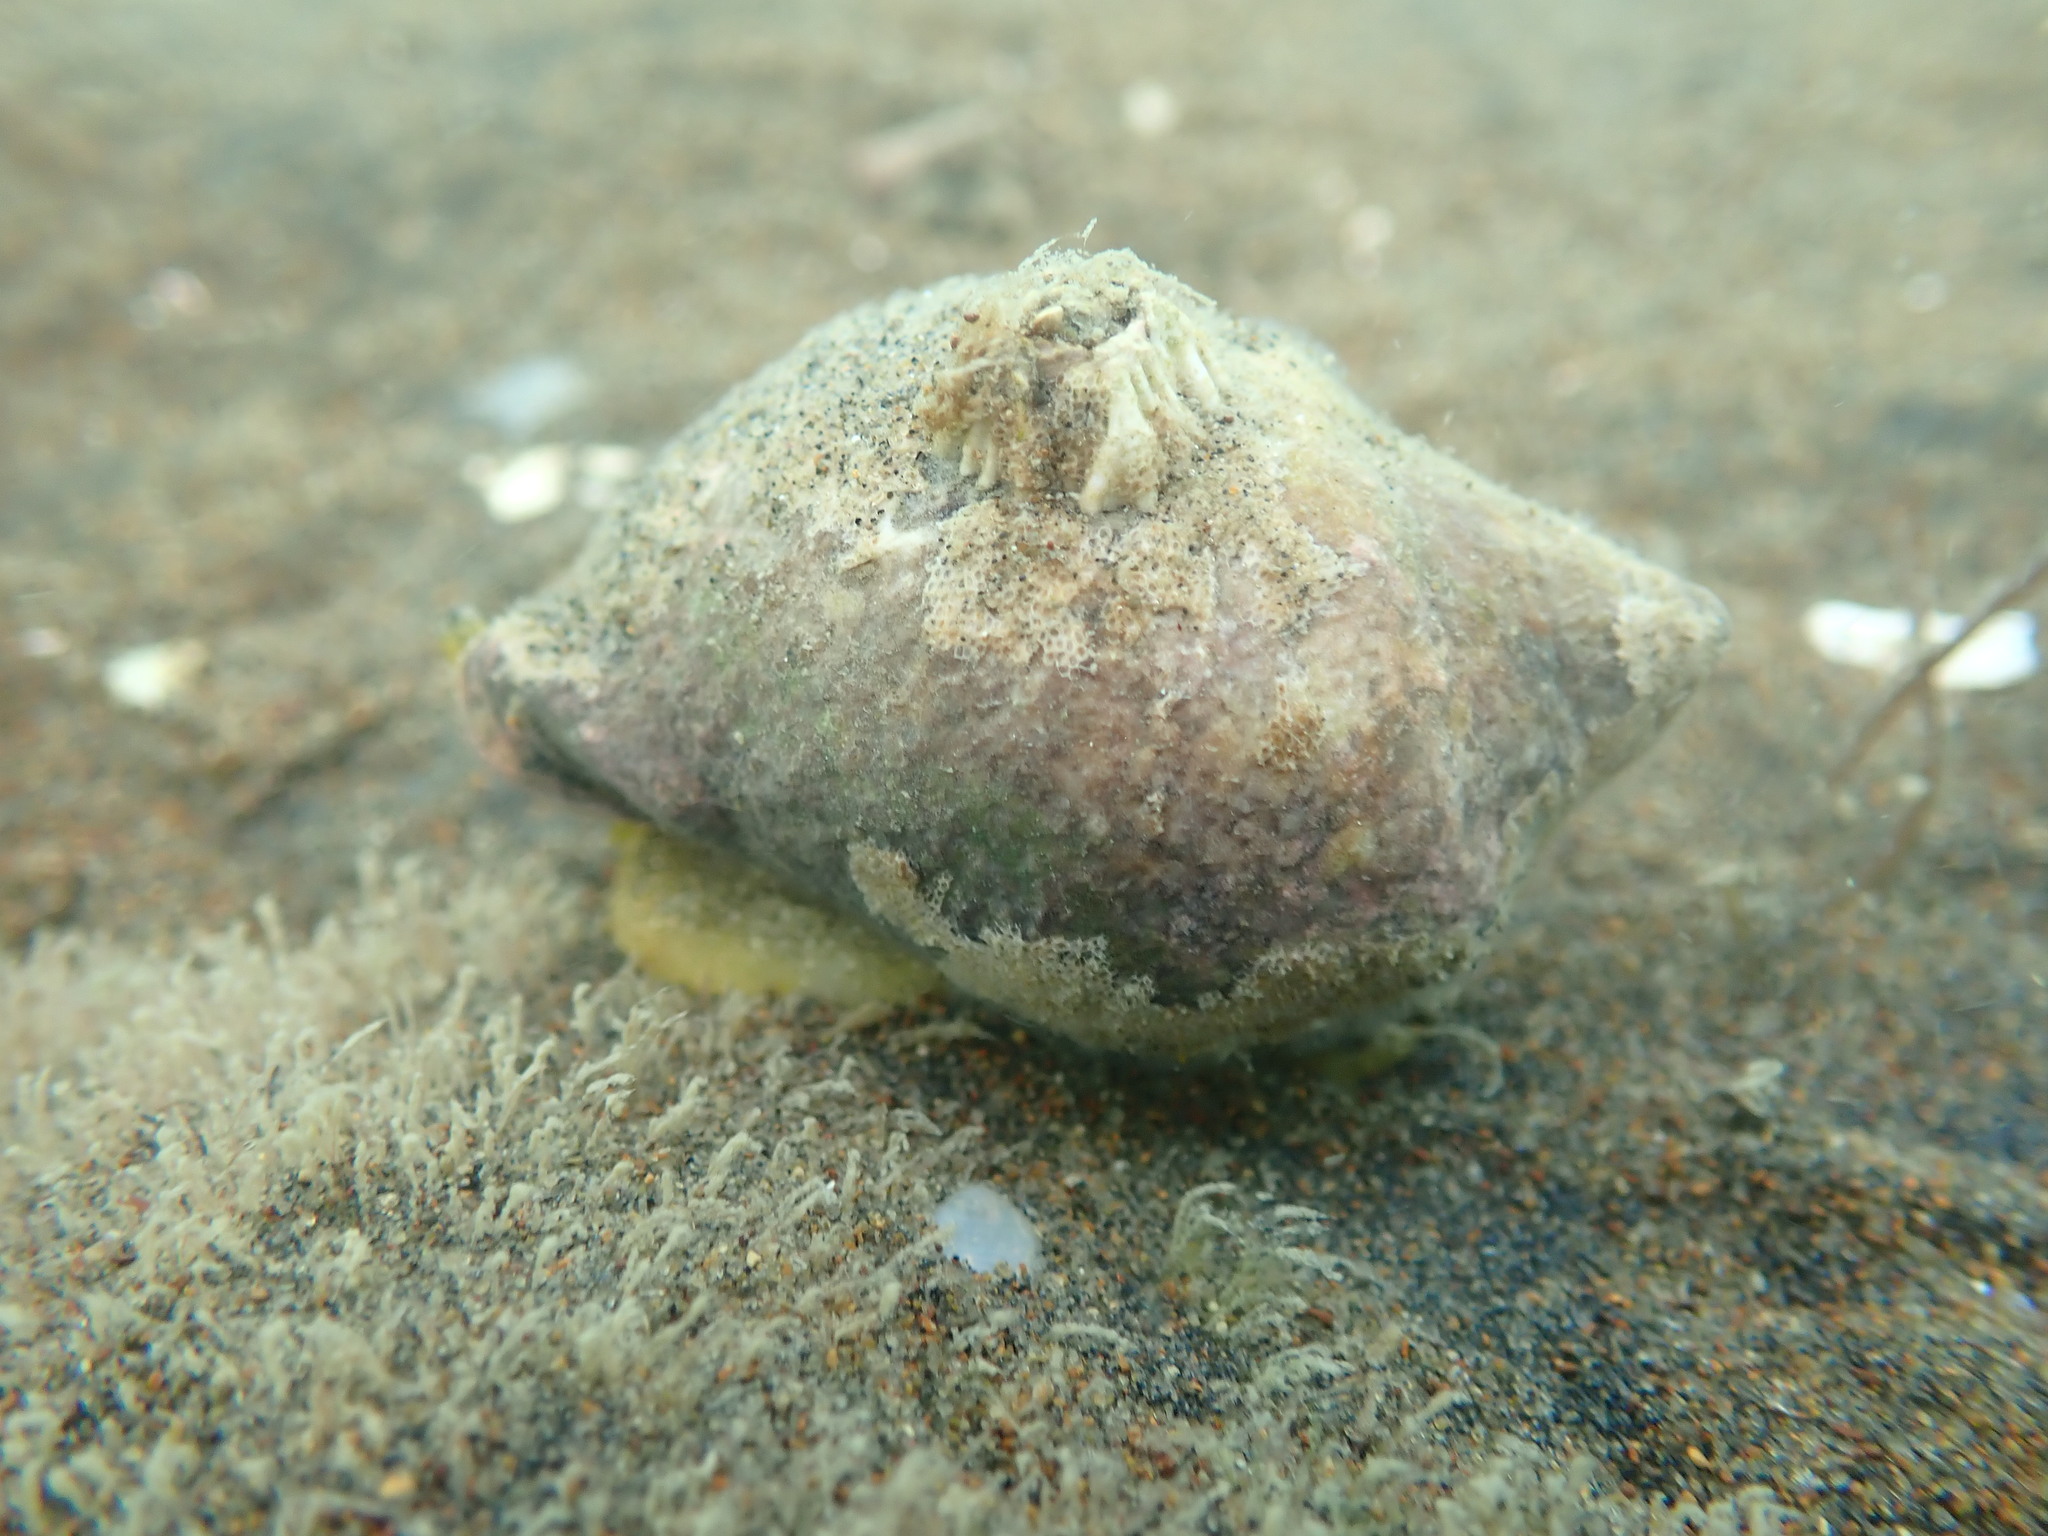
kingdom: Animalia
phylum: Arthropoda
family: Elminiidae
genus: Austrominius
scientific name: Austrominius modestus
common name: Australasian barnacle
